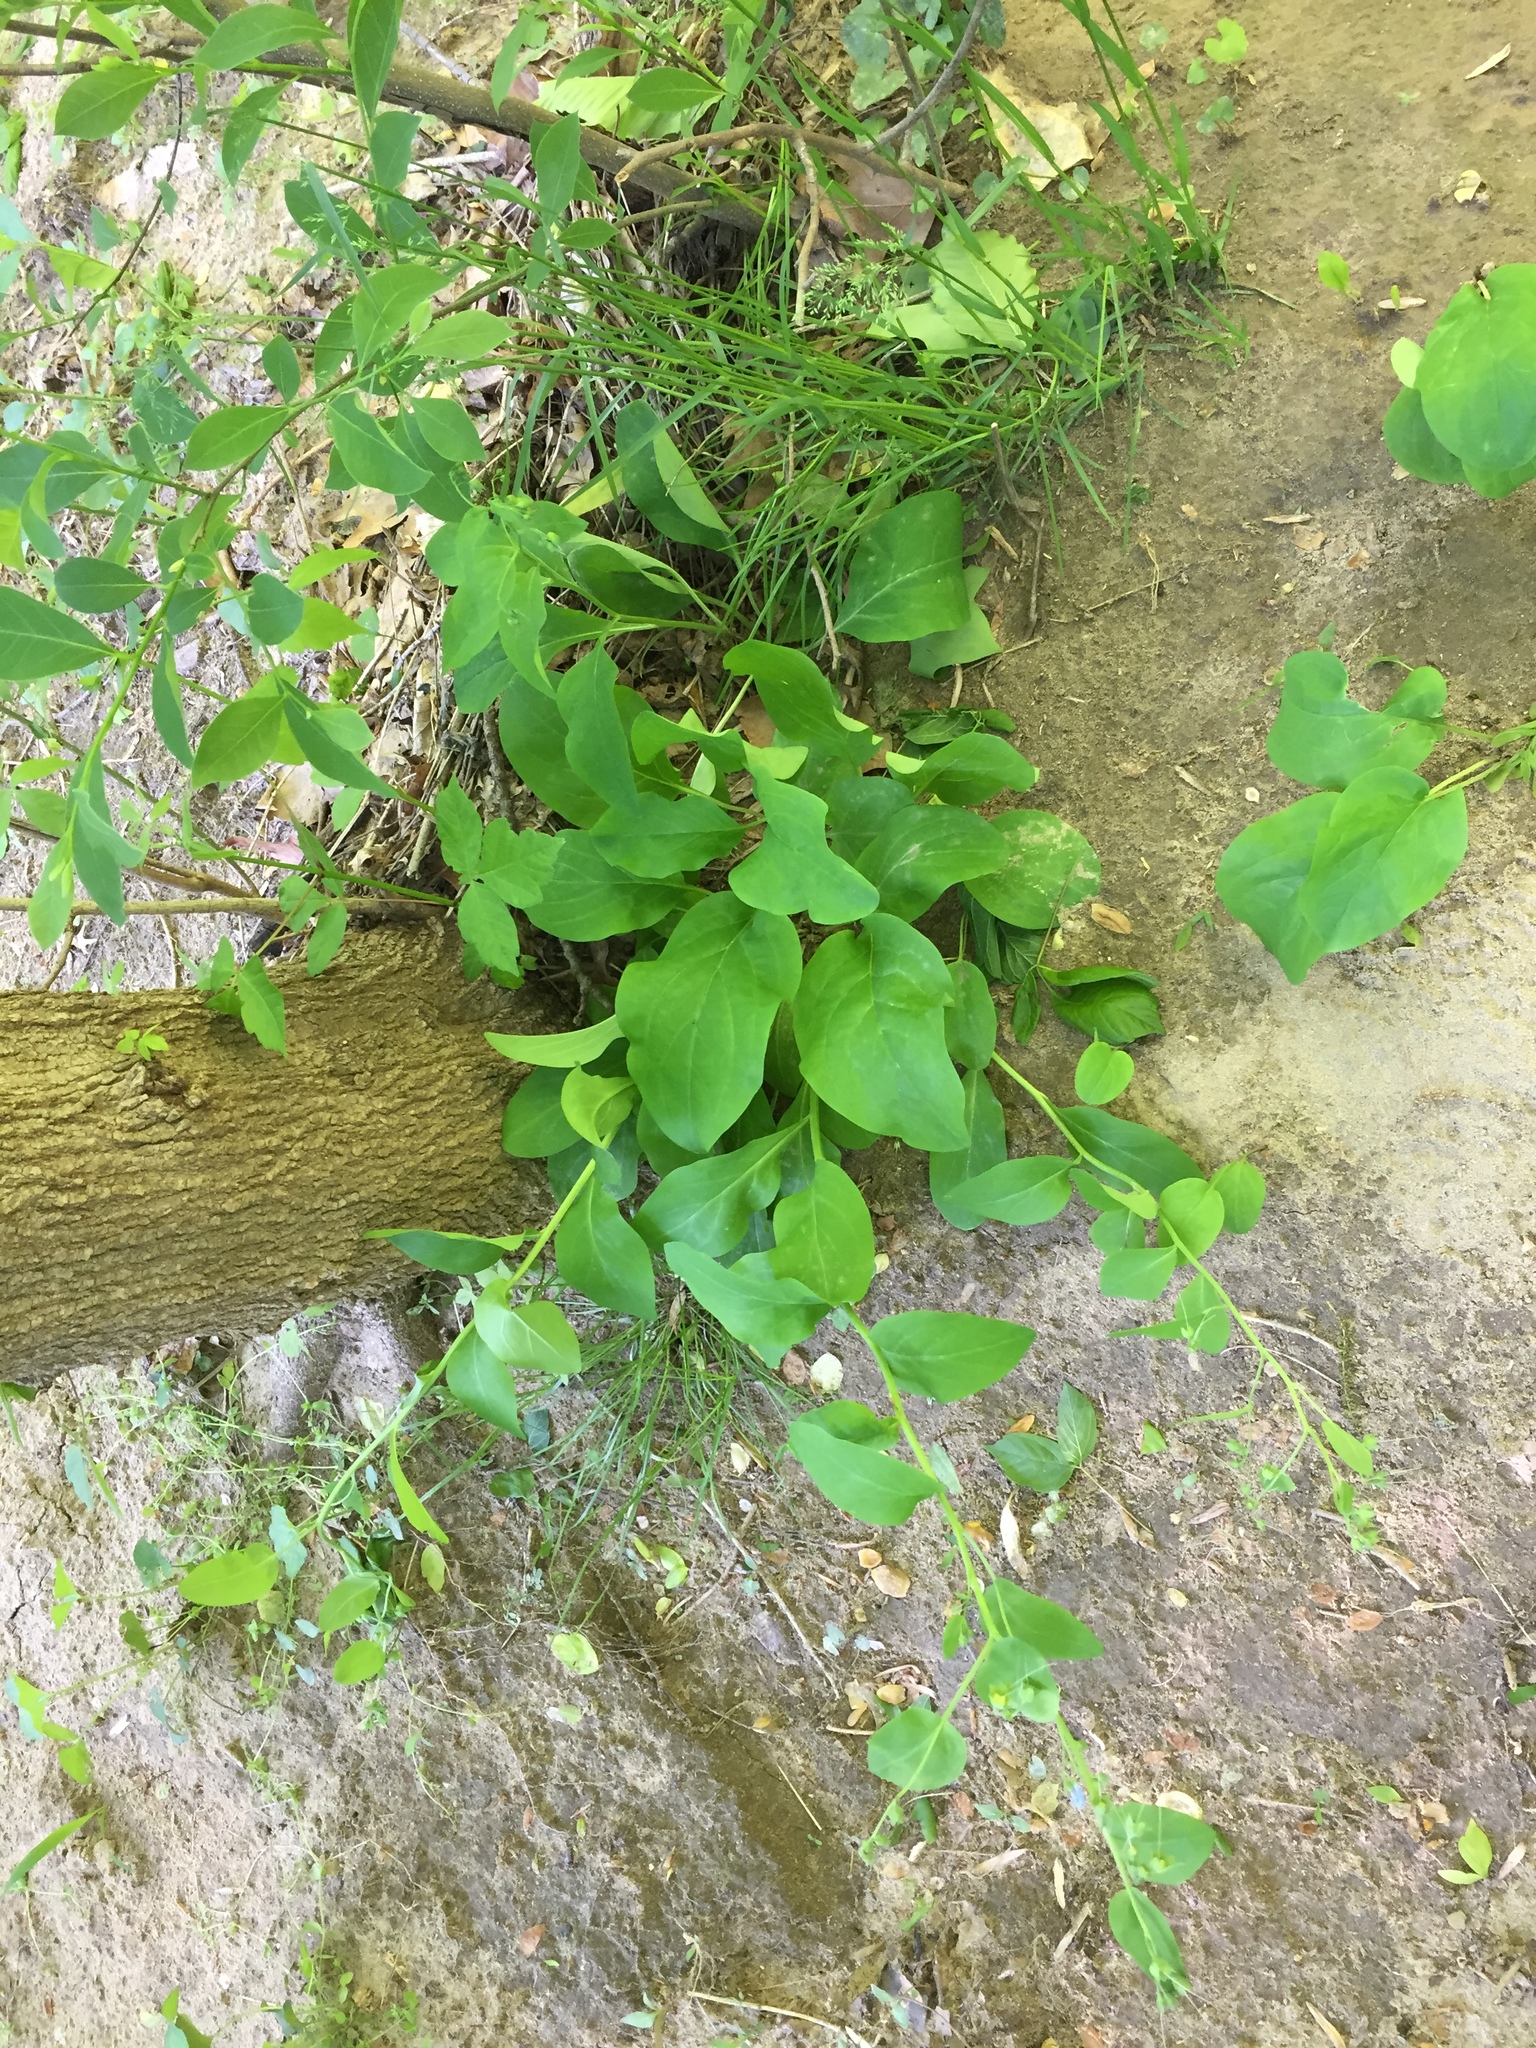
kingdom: Plantae
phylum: Tracheophyta
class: Magnoliopsida
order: Boraginales
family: Boraginaceae
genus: Mertensia
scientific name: Mertensia virginica
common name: Virginia bluebells
